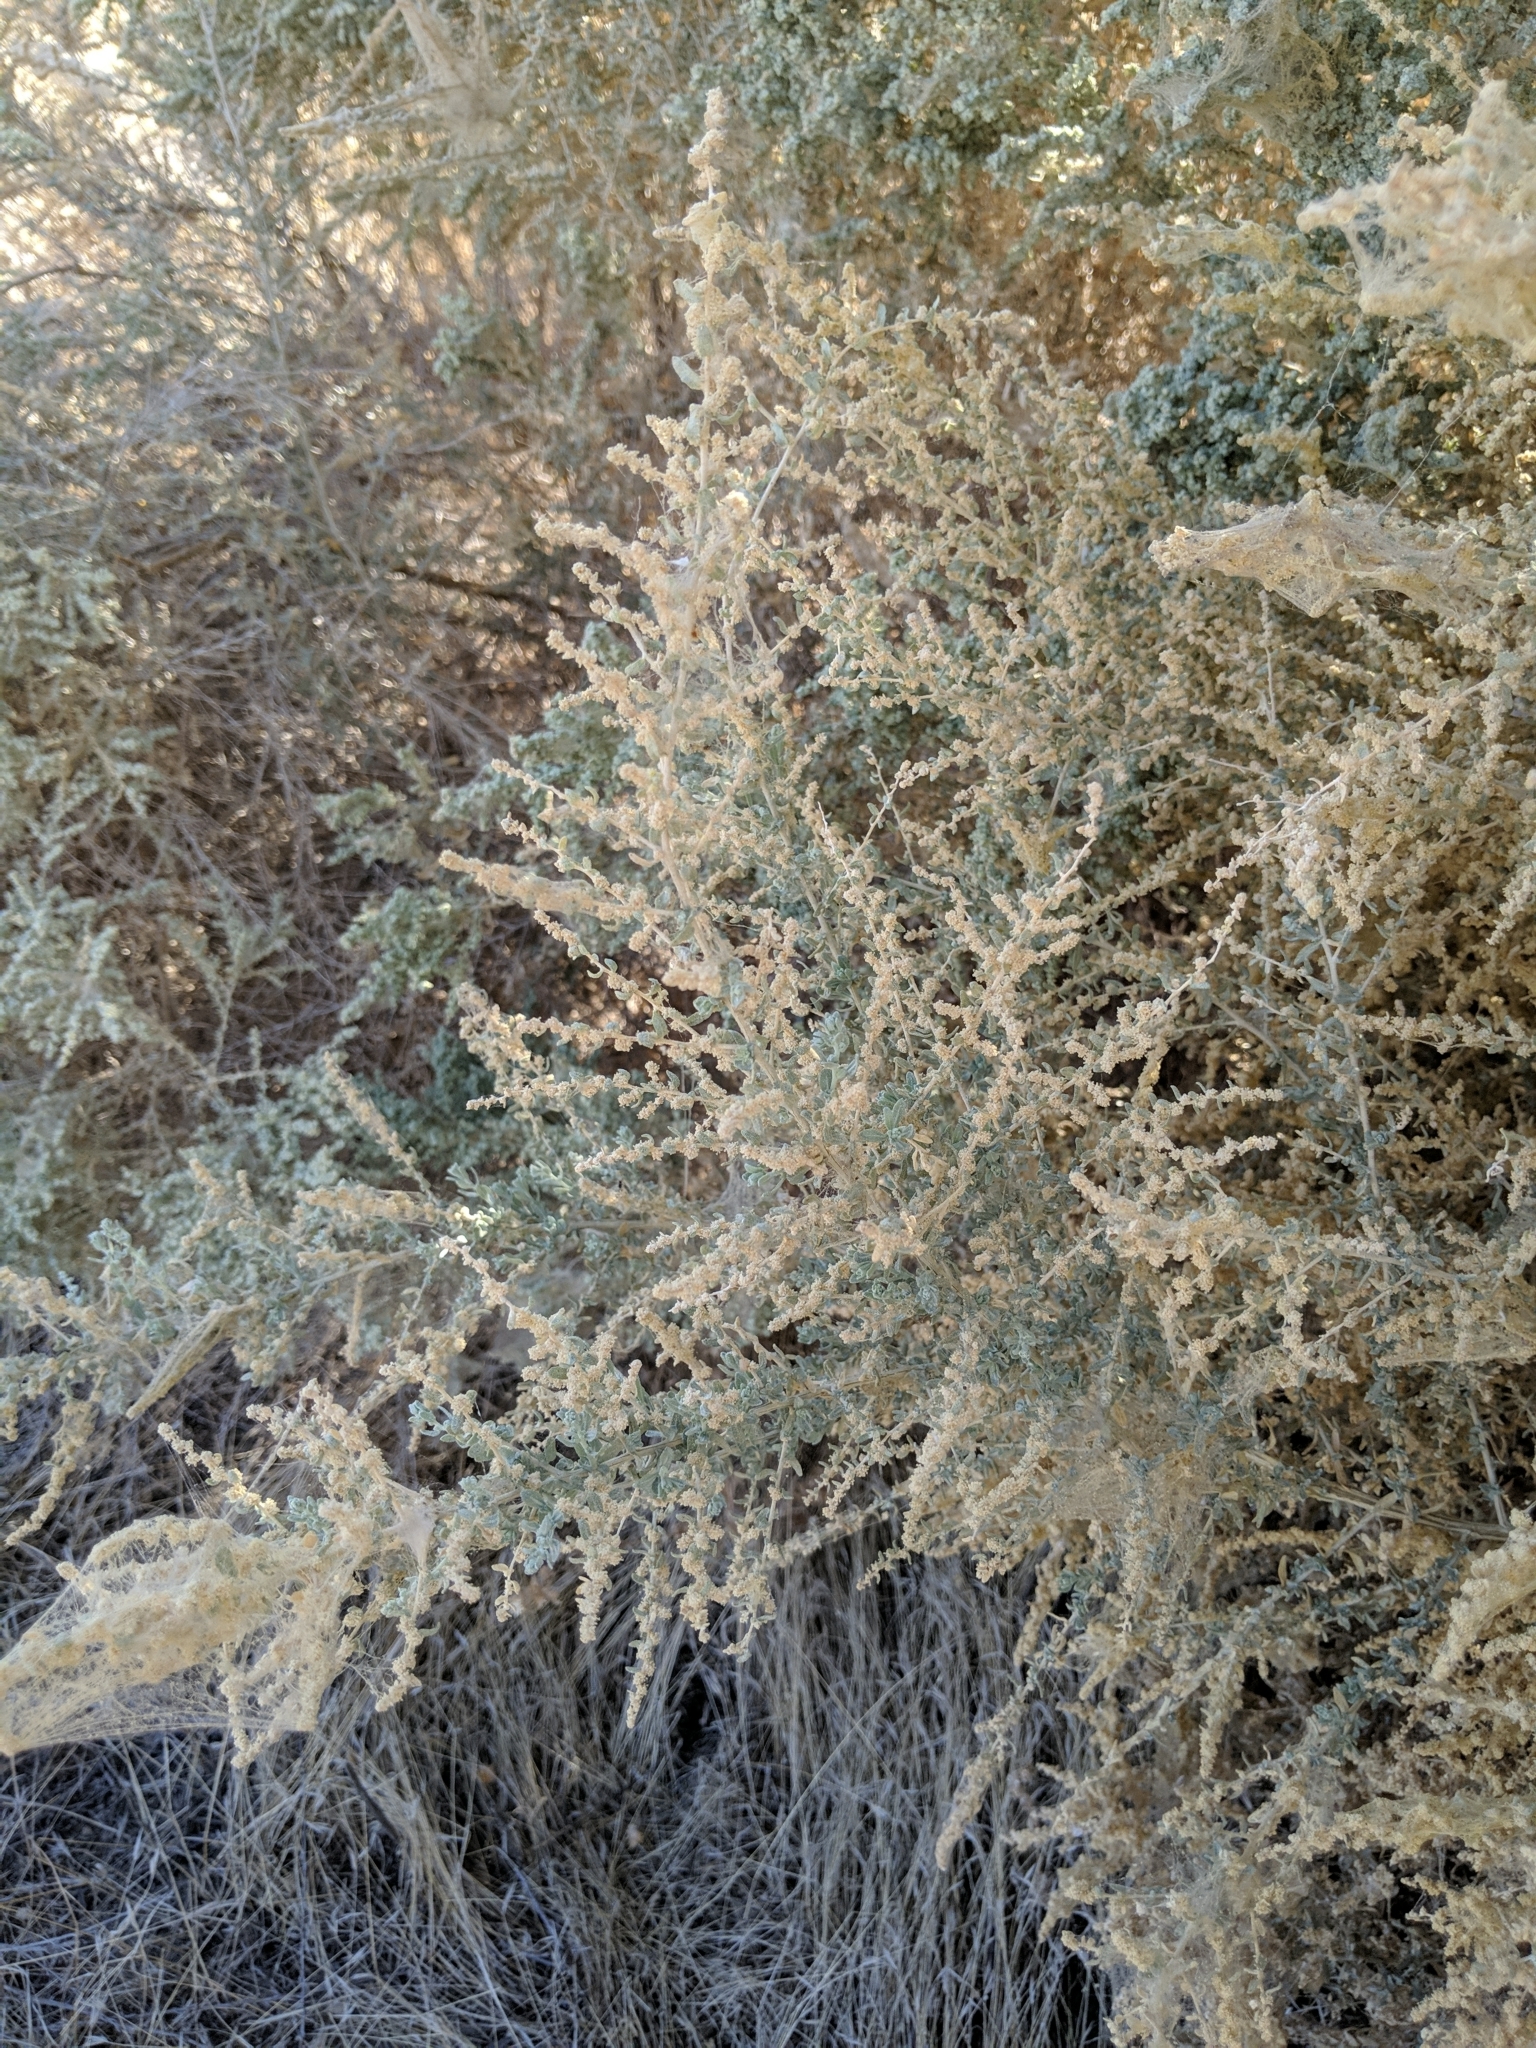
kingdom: Plantae
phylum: Tracheophyta
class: Magnoliopsida
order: Caryophyllales
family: Amaranthaceae
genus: Atriplex
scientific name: Atriplex polycarpa
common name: Desert saltbush
